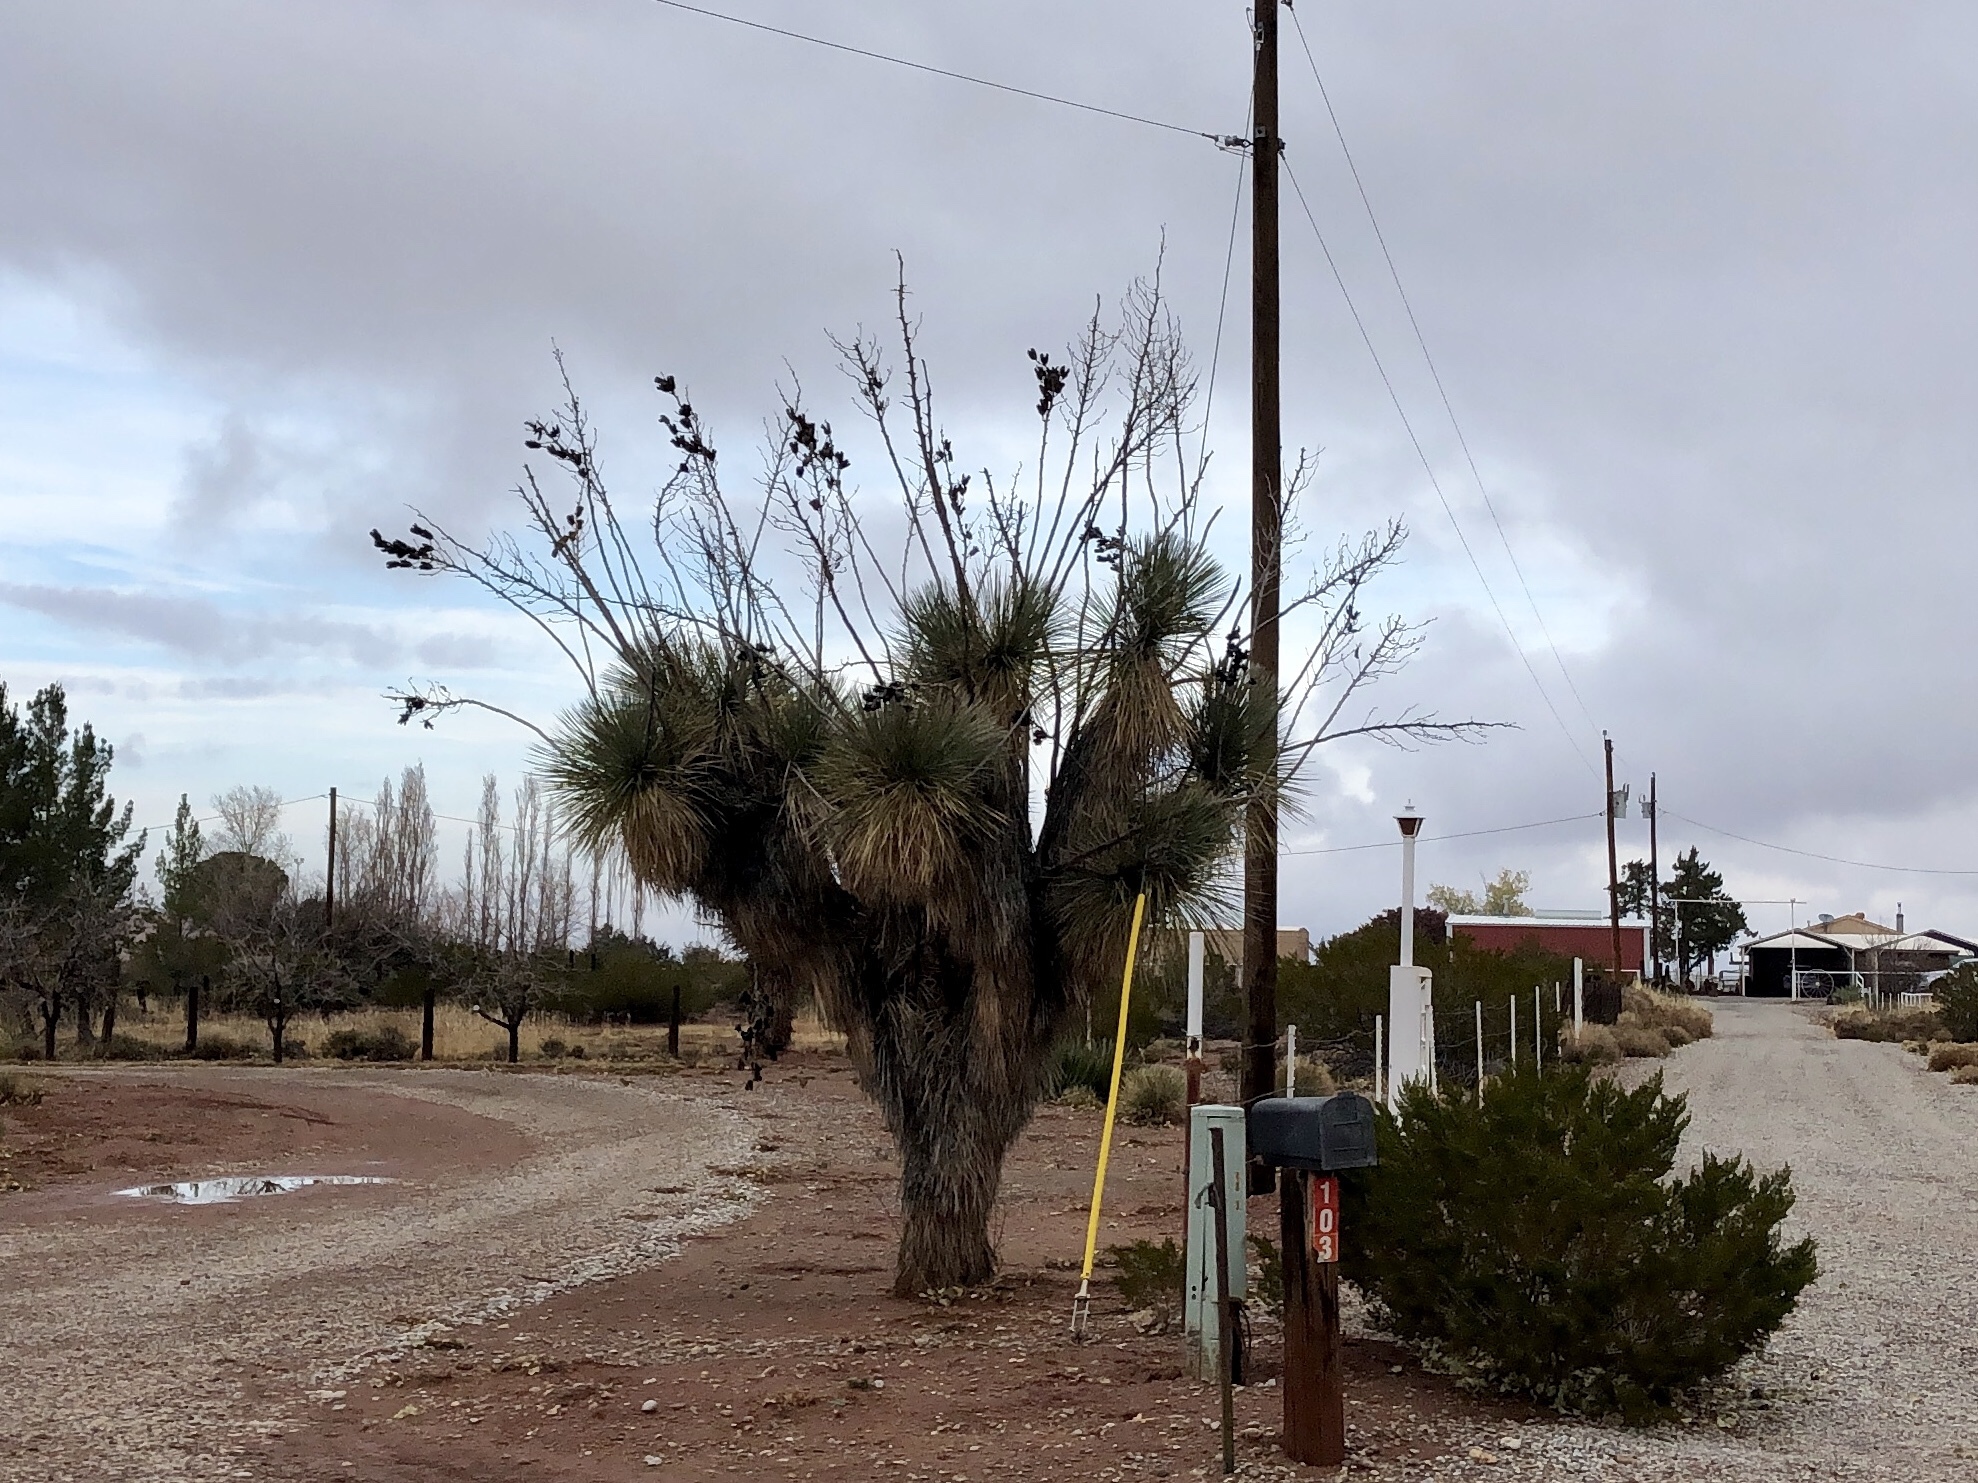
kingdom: Plantae
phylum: Tracheophyta
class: Liliopsida
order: Asparagales
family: Asparagaceae
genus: Yucca
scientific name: Yucca elata
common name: Palmella
